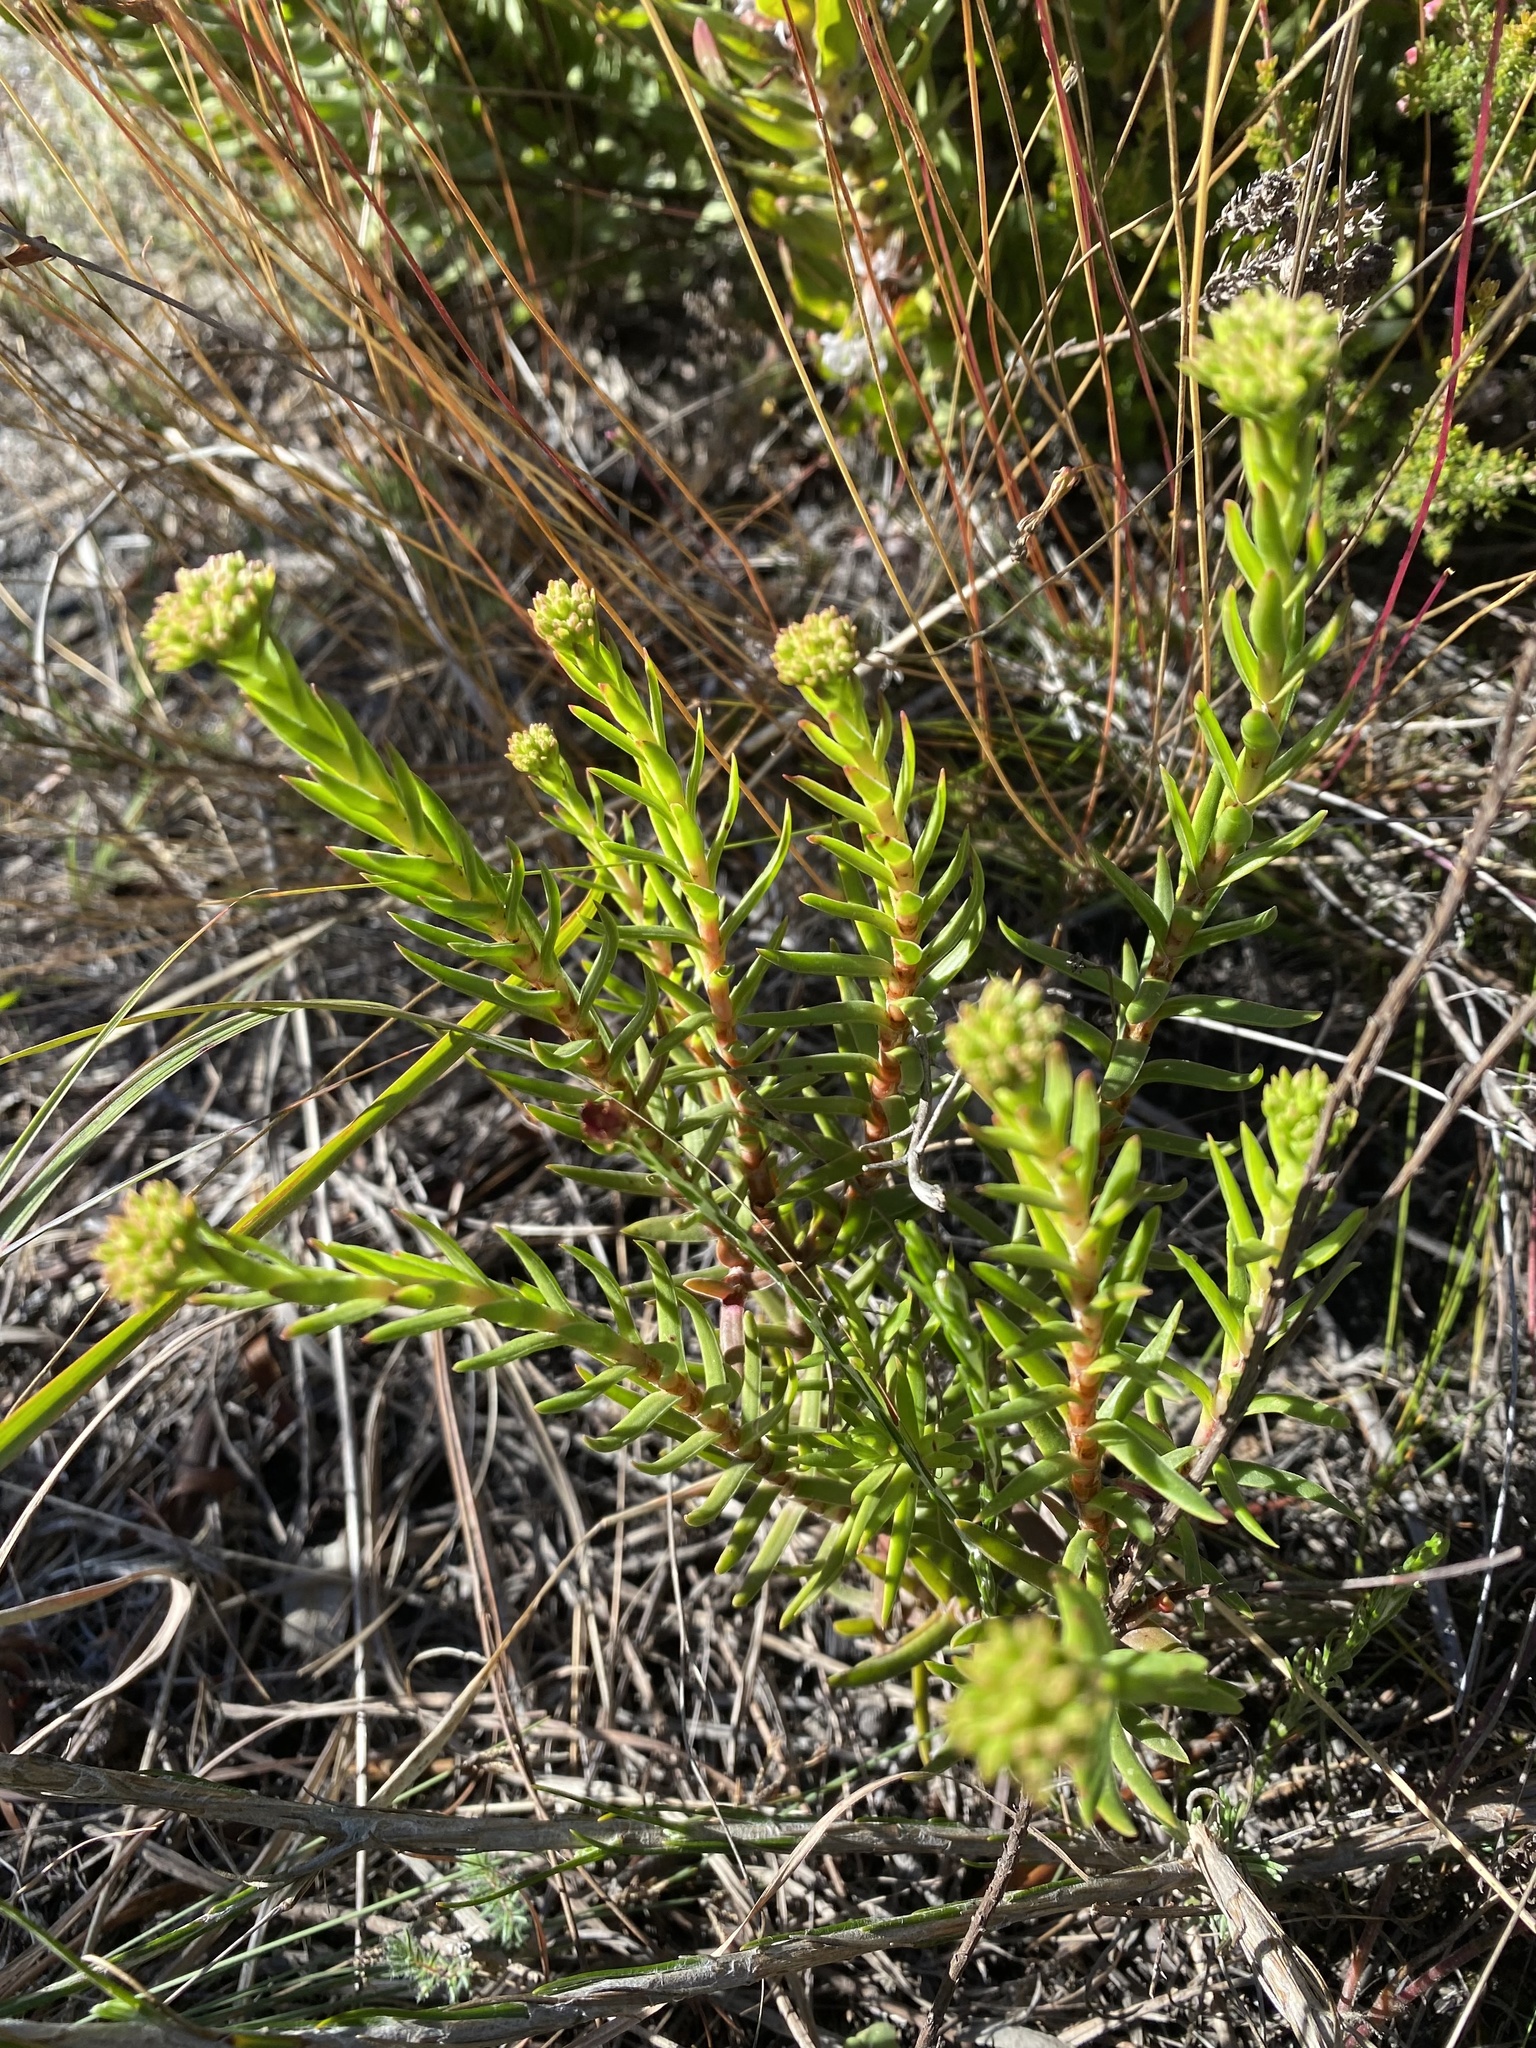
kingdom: Plantae
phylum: Tracheophyta
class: Magnoliopsida
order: Saxifragales
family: Crassulaceae
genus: Crassula
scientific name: Crassula subulata
